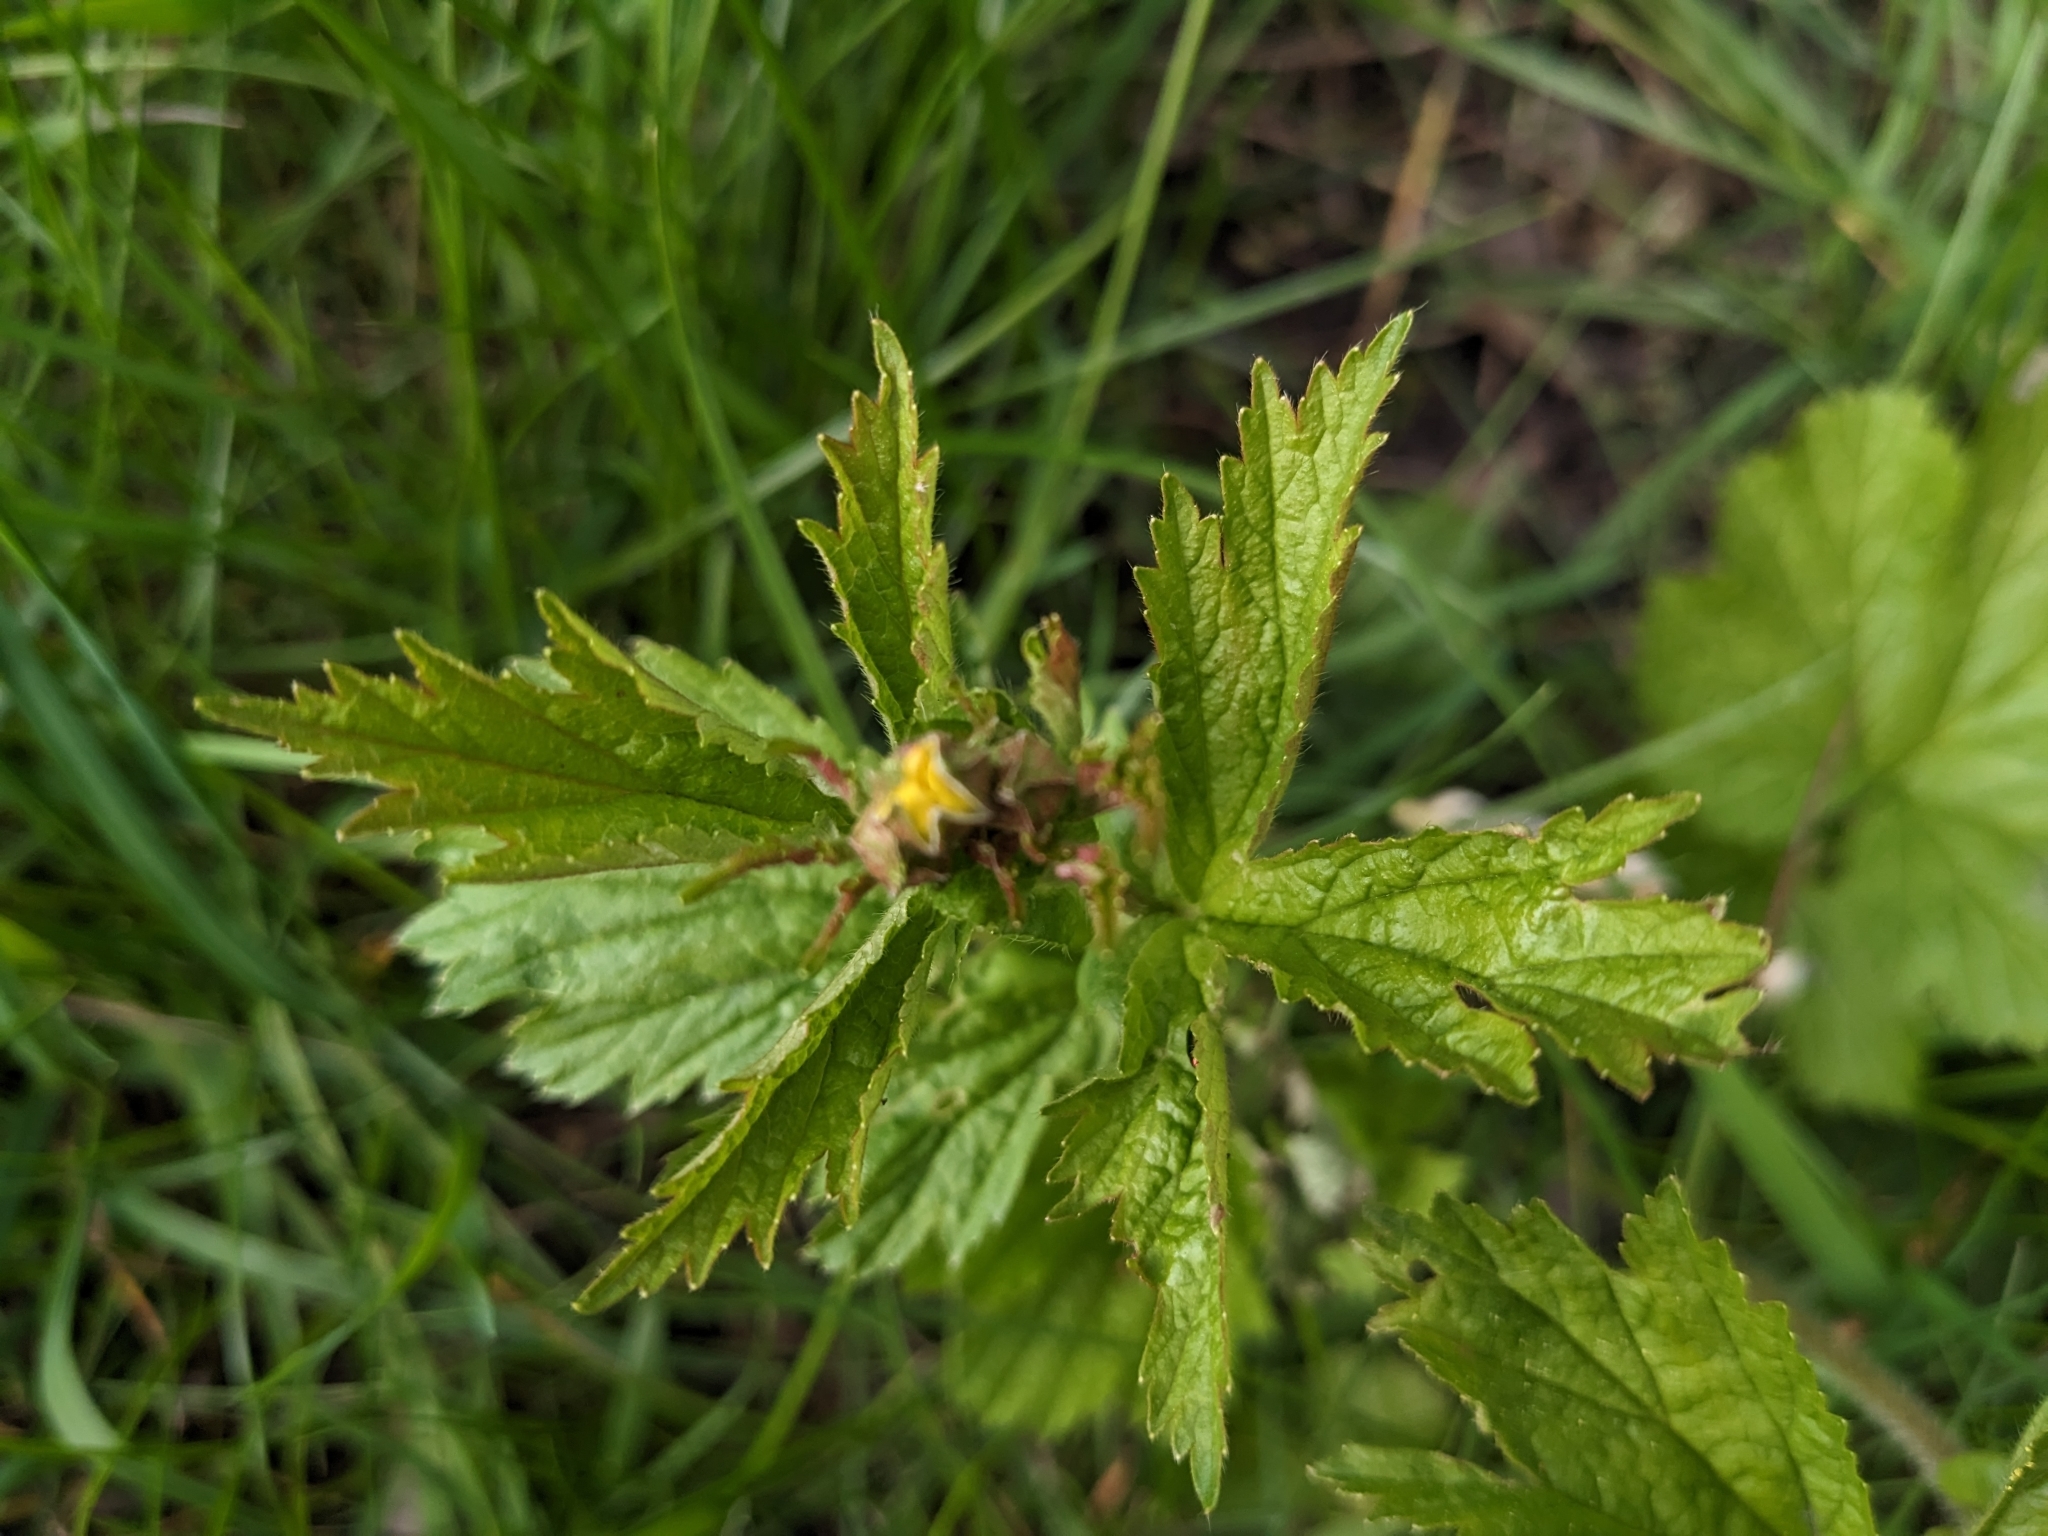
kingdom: Plantae
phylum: Tracheophyta
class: Magnoliopsida
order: Rosales
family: Rosaceae
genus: Geum
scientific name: Geum macrophyllum
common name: Large-leaved avens
